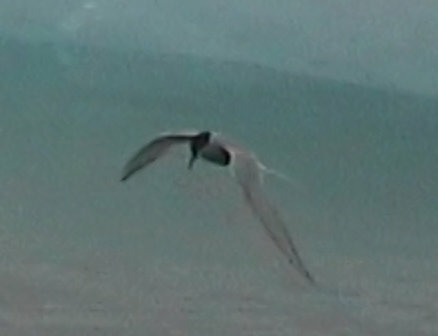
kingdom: Animalia
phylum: Chordata
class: Aves
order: Charadriiformes
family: Laridae
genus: Sterna
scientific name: Sterna paradisaea
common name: Arctic tern
